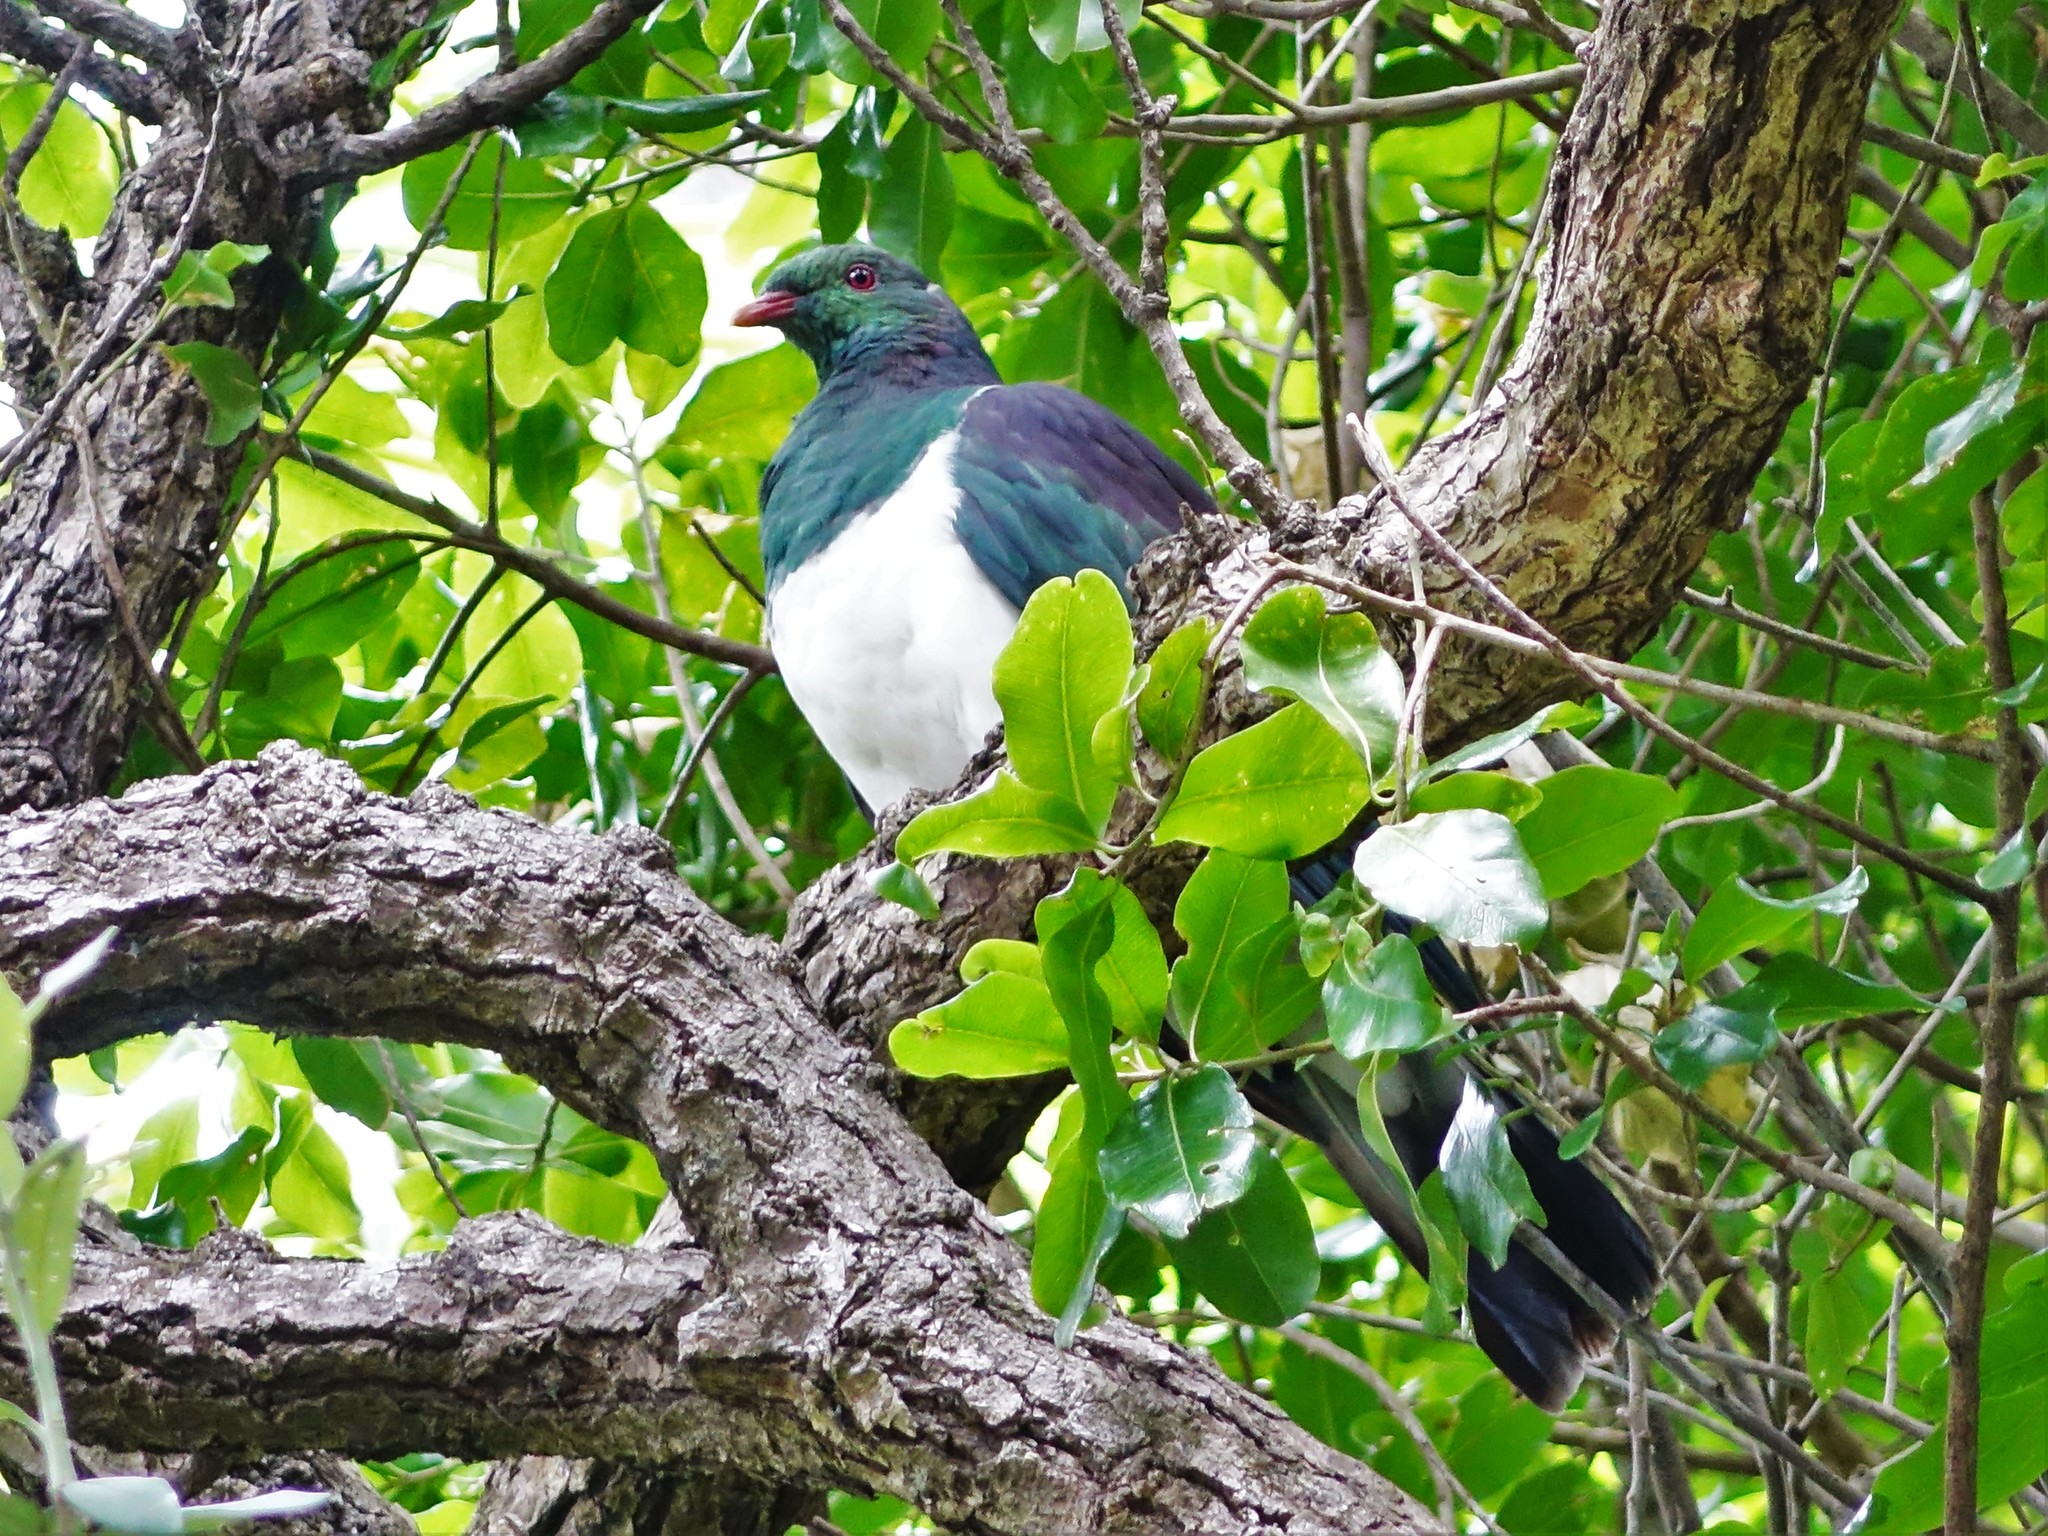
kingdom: Animalia
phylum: Chordata
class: Aves
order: Columbiformes
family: Columbidae
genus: Hemiphaga
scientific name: Hemiphaga novaeseelandiae
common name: New zealand pigeon
